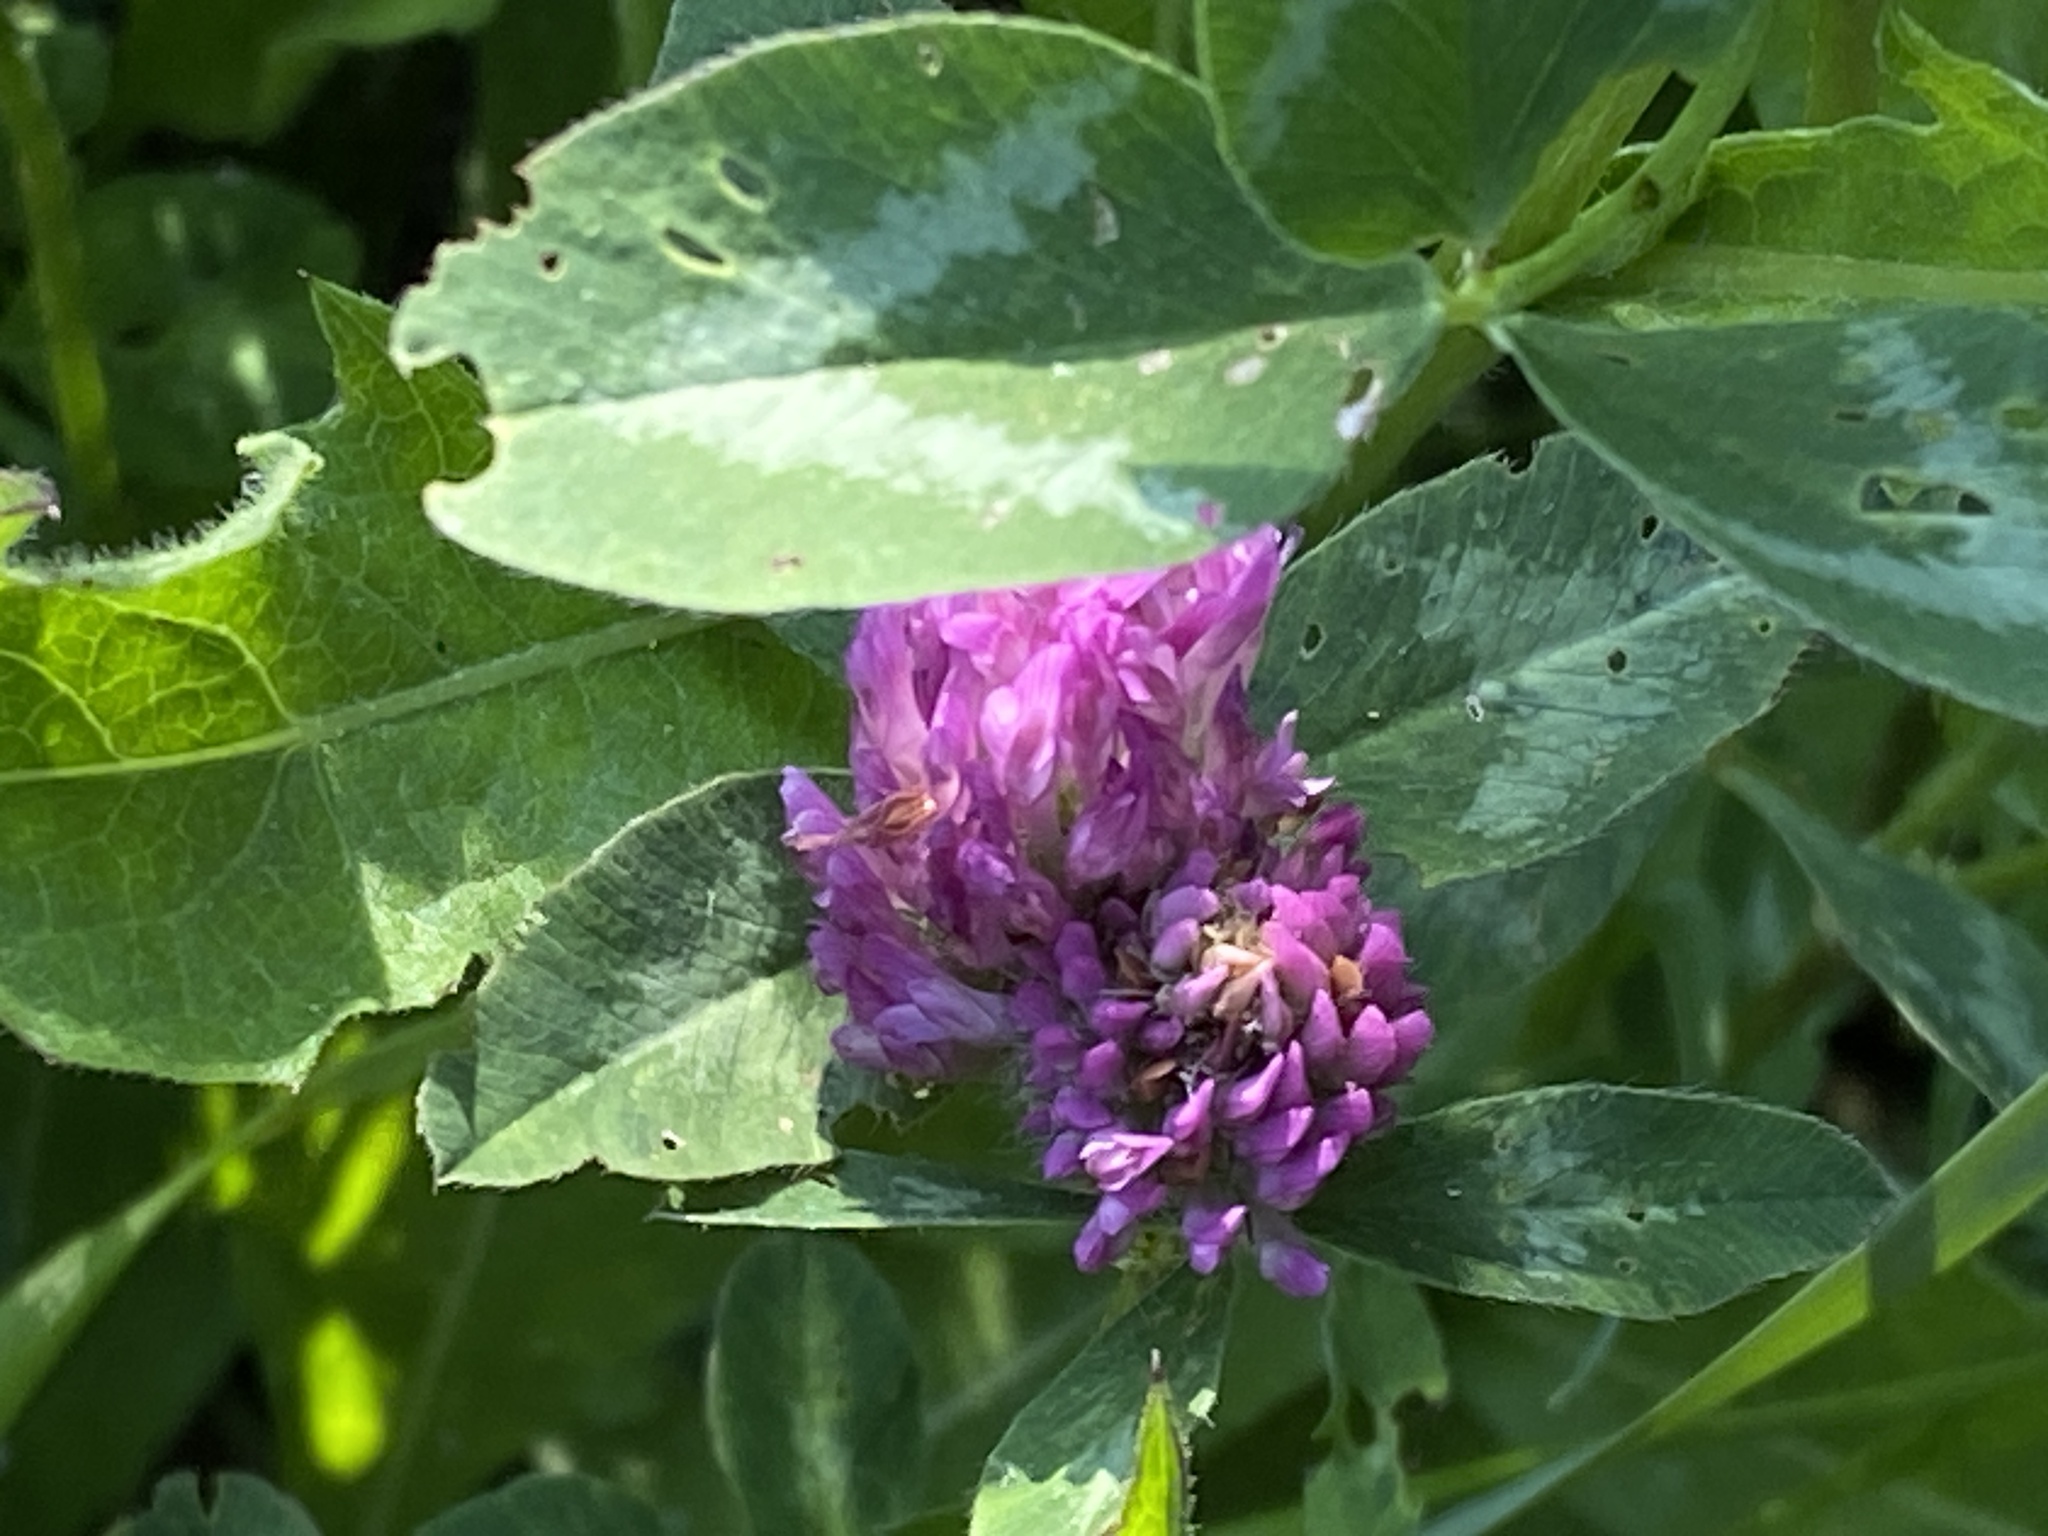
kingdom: Plantae
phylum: Tracheophyta
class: Magnoliopsida
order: Fabales
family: Fabaceae
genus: Trifolium
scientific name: Trifolium pratense
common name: Red clover
